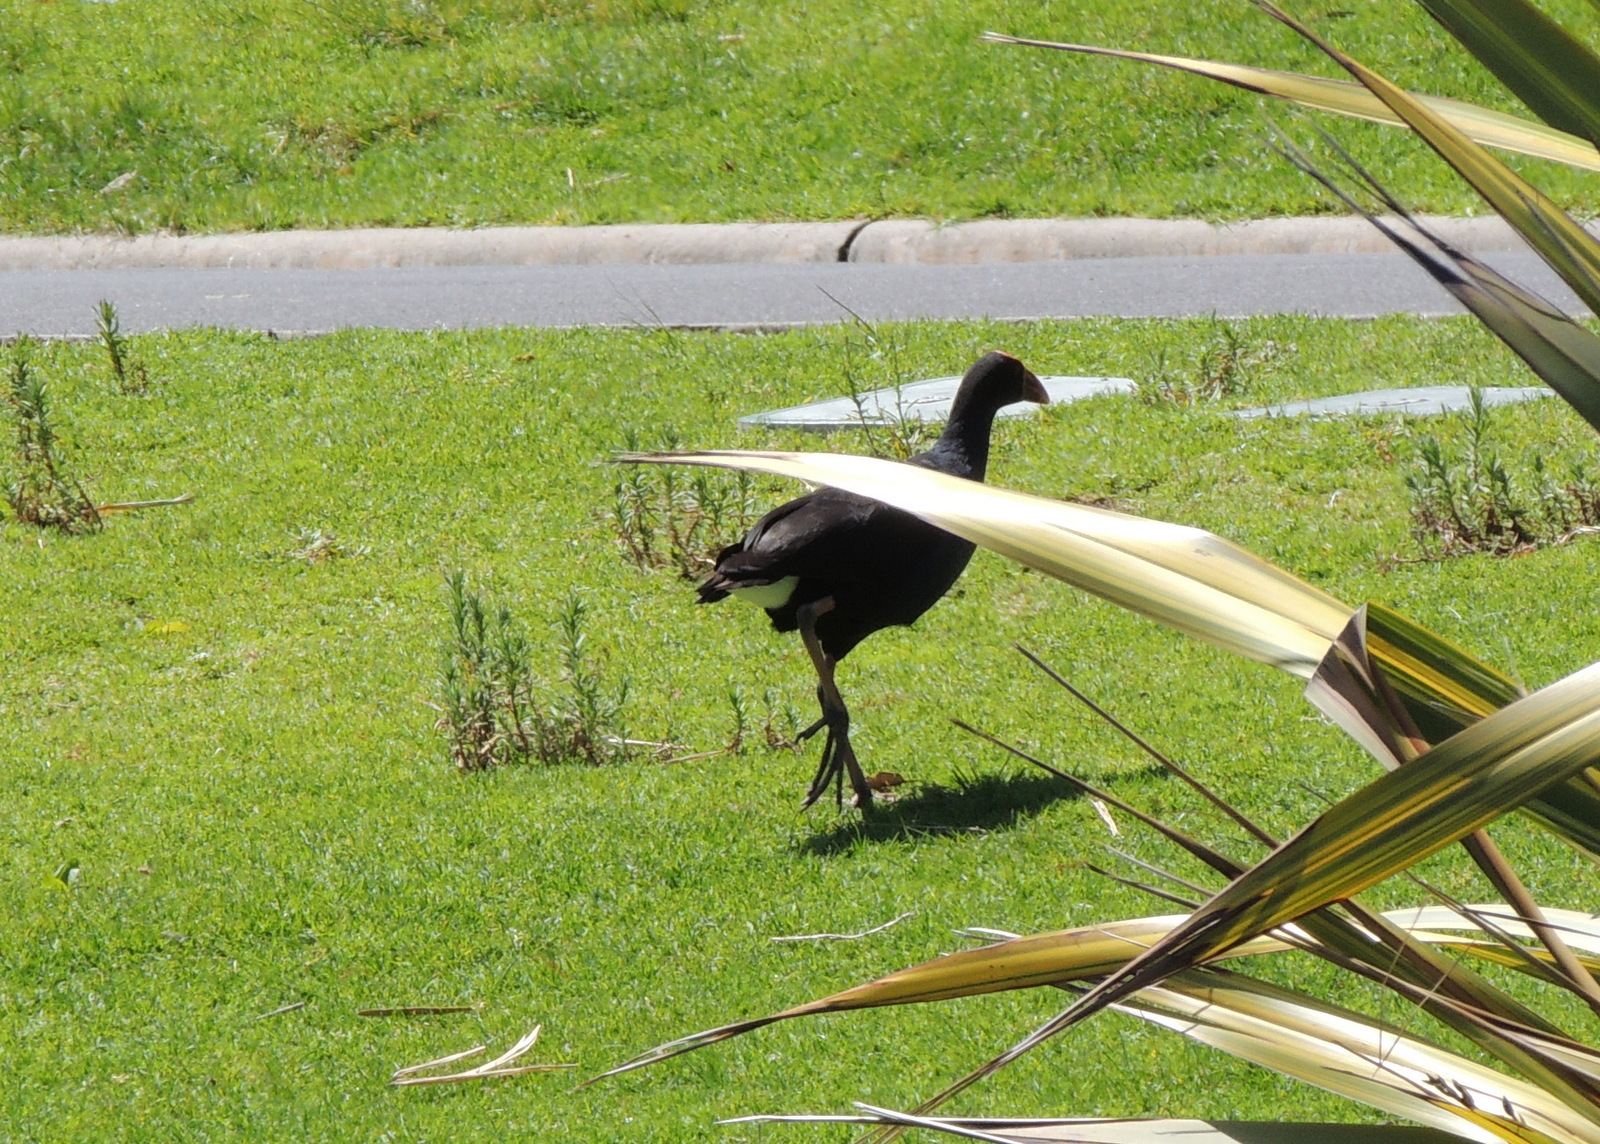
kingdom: Animalia
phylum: Chordata
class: Aves
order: Gruiformes
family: Rallidae
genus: Porphyrio
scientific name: Porphyrio melanotus
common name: Australasian swamphen
